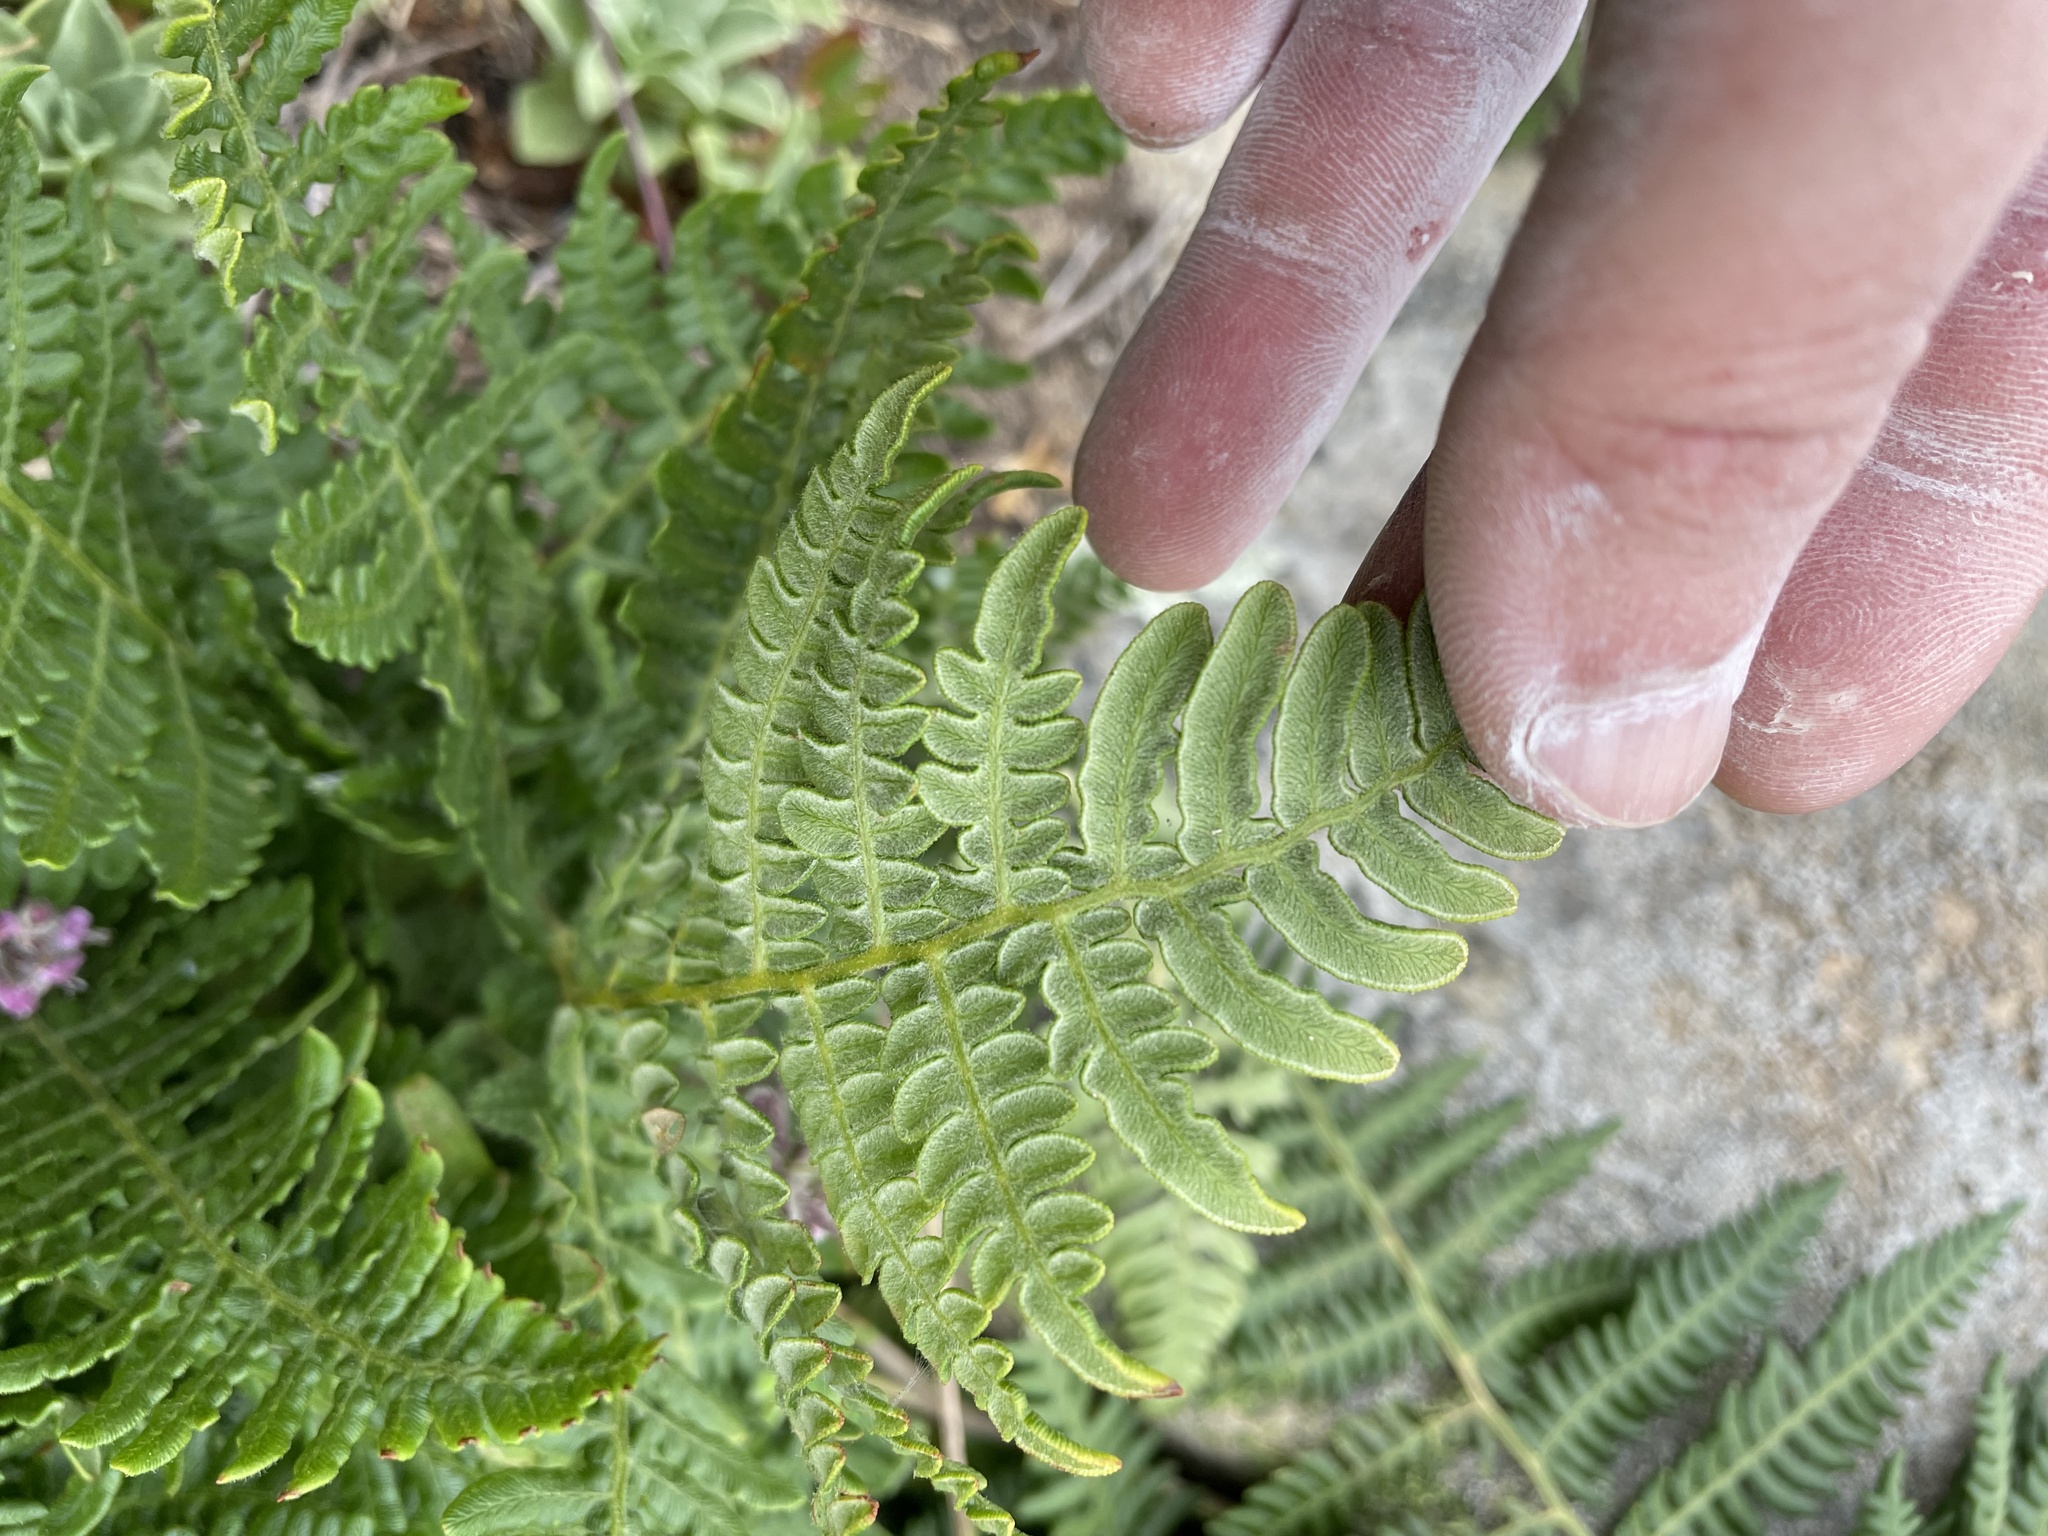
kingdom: Plantae
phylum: Tracheophyta
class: Polypodiopsida
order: Polypodiales
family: Dennstaedtiaceae
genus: Pteridium
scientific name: Pteridium aquilinum
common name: Bracken
